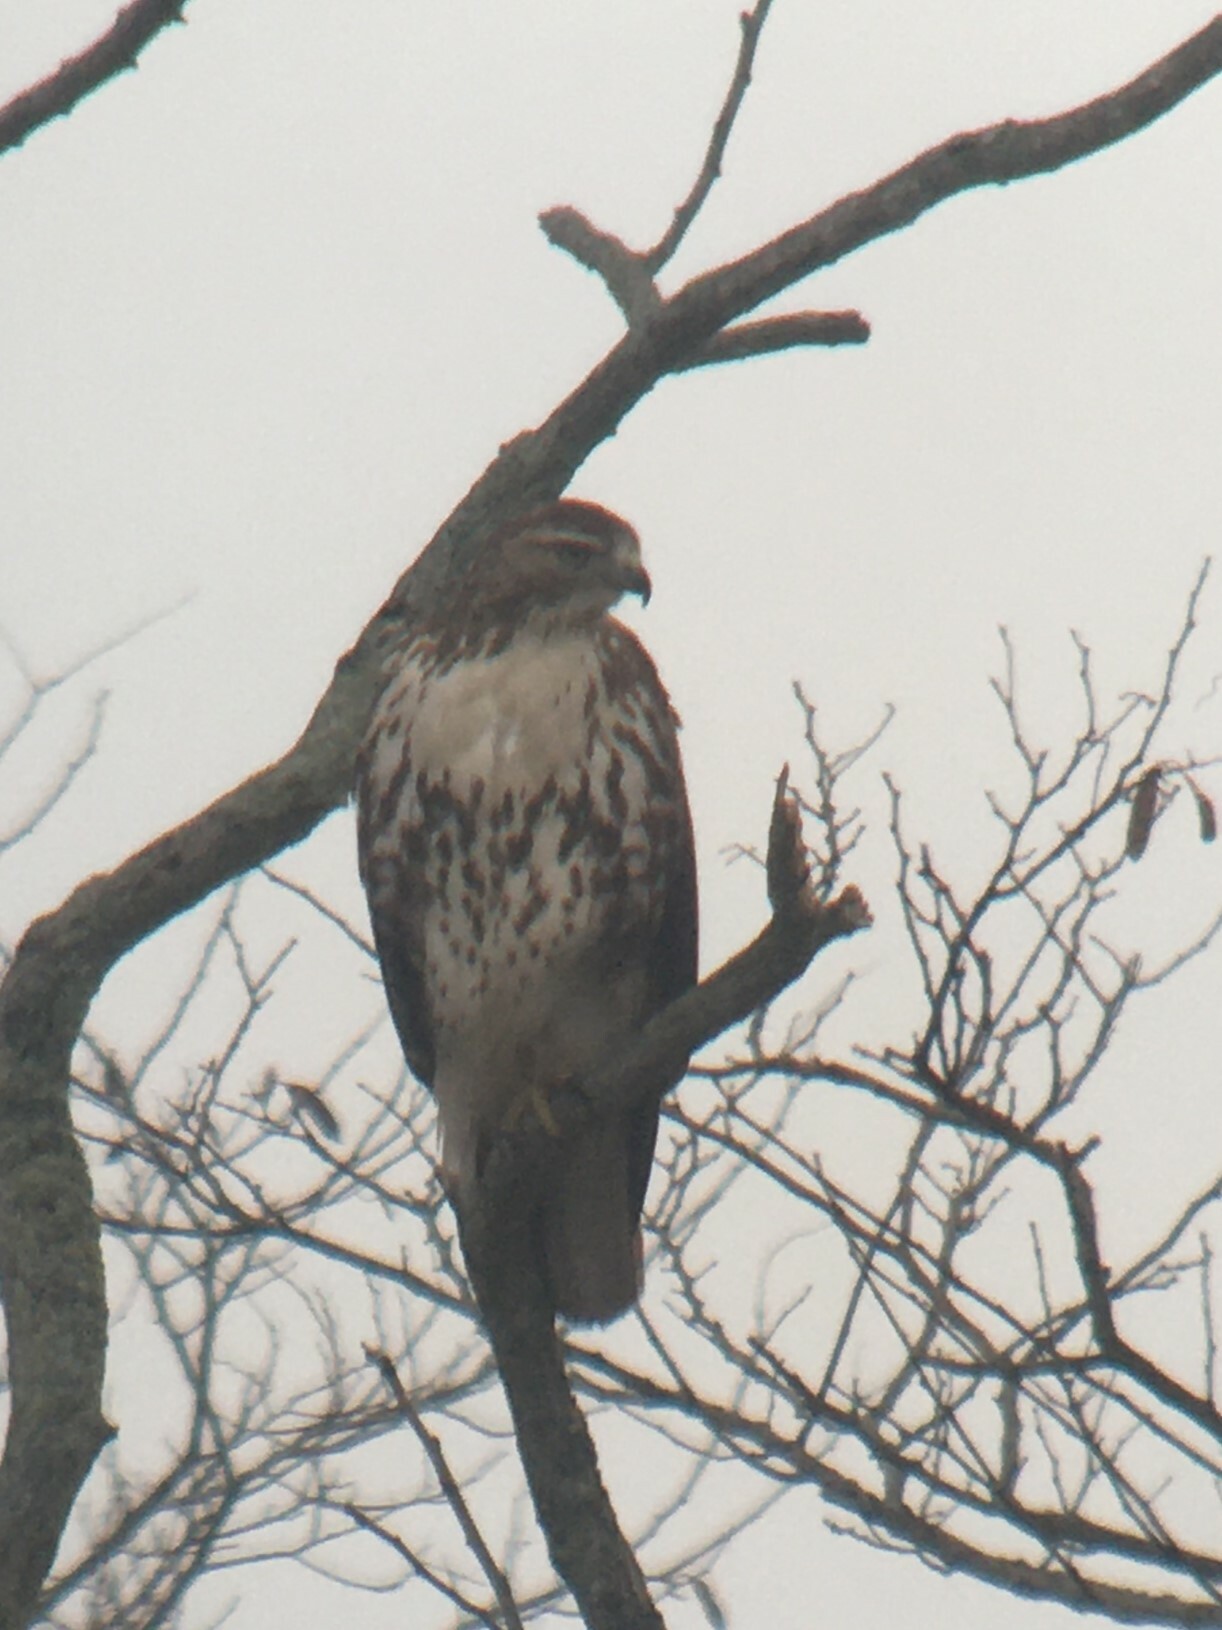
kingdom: Animalia
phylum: Chordata
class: Aves
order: Accipitriformes
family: Accipitridae
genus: Buteo
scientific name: Buteo jamaicensis
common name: Red-tailed hawk
